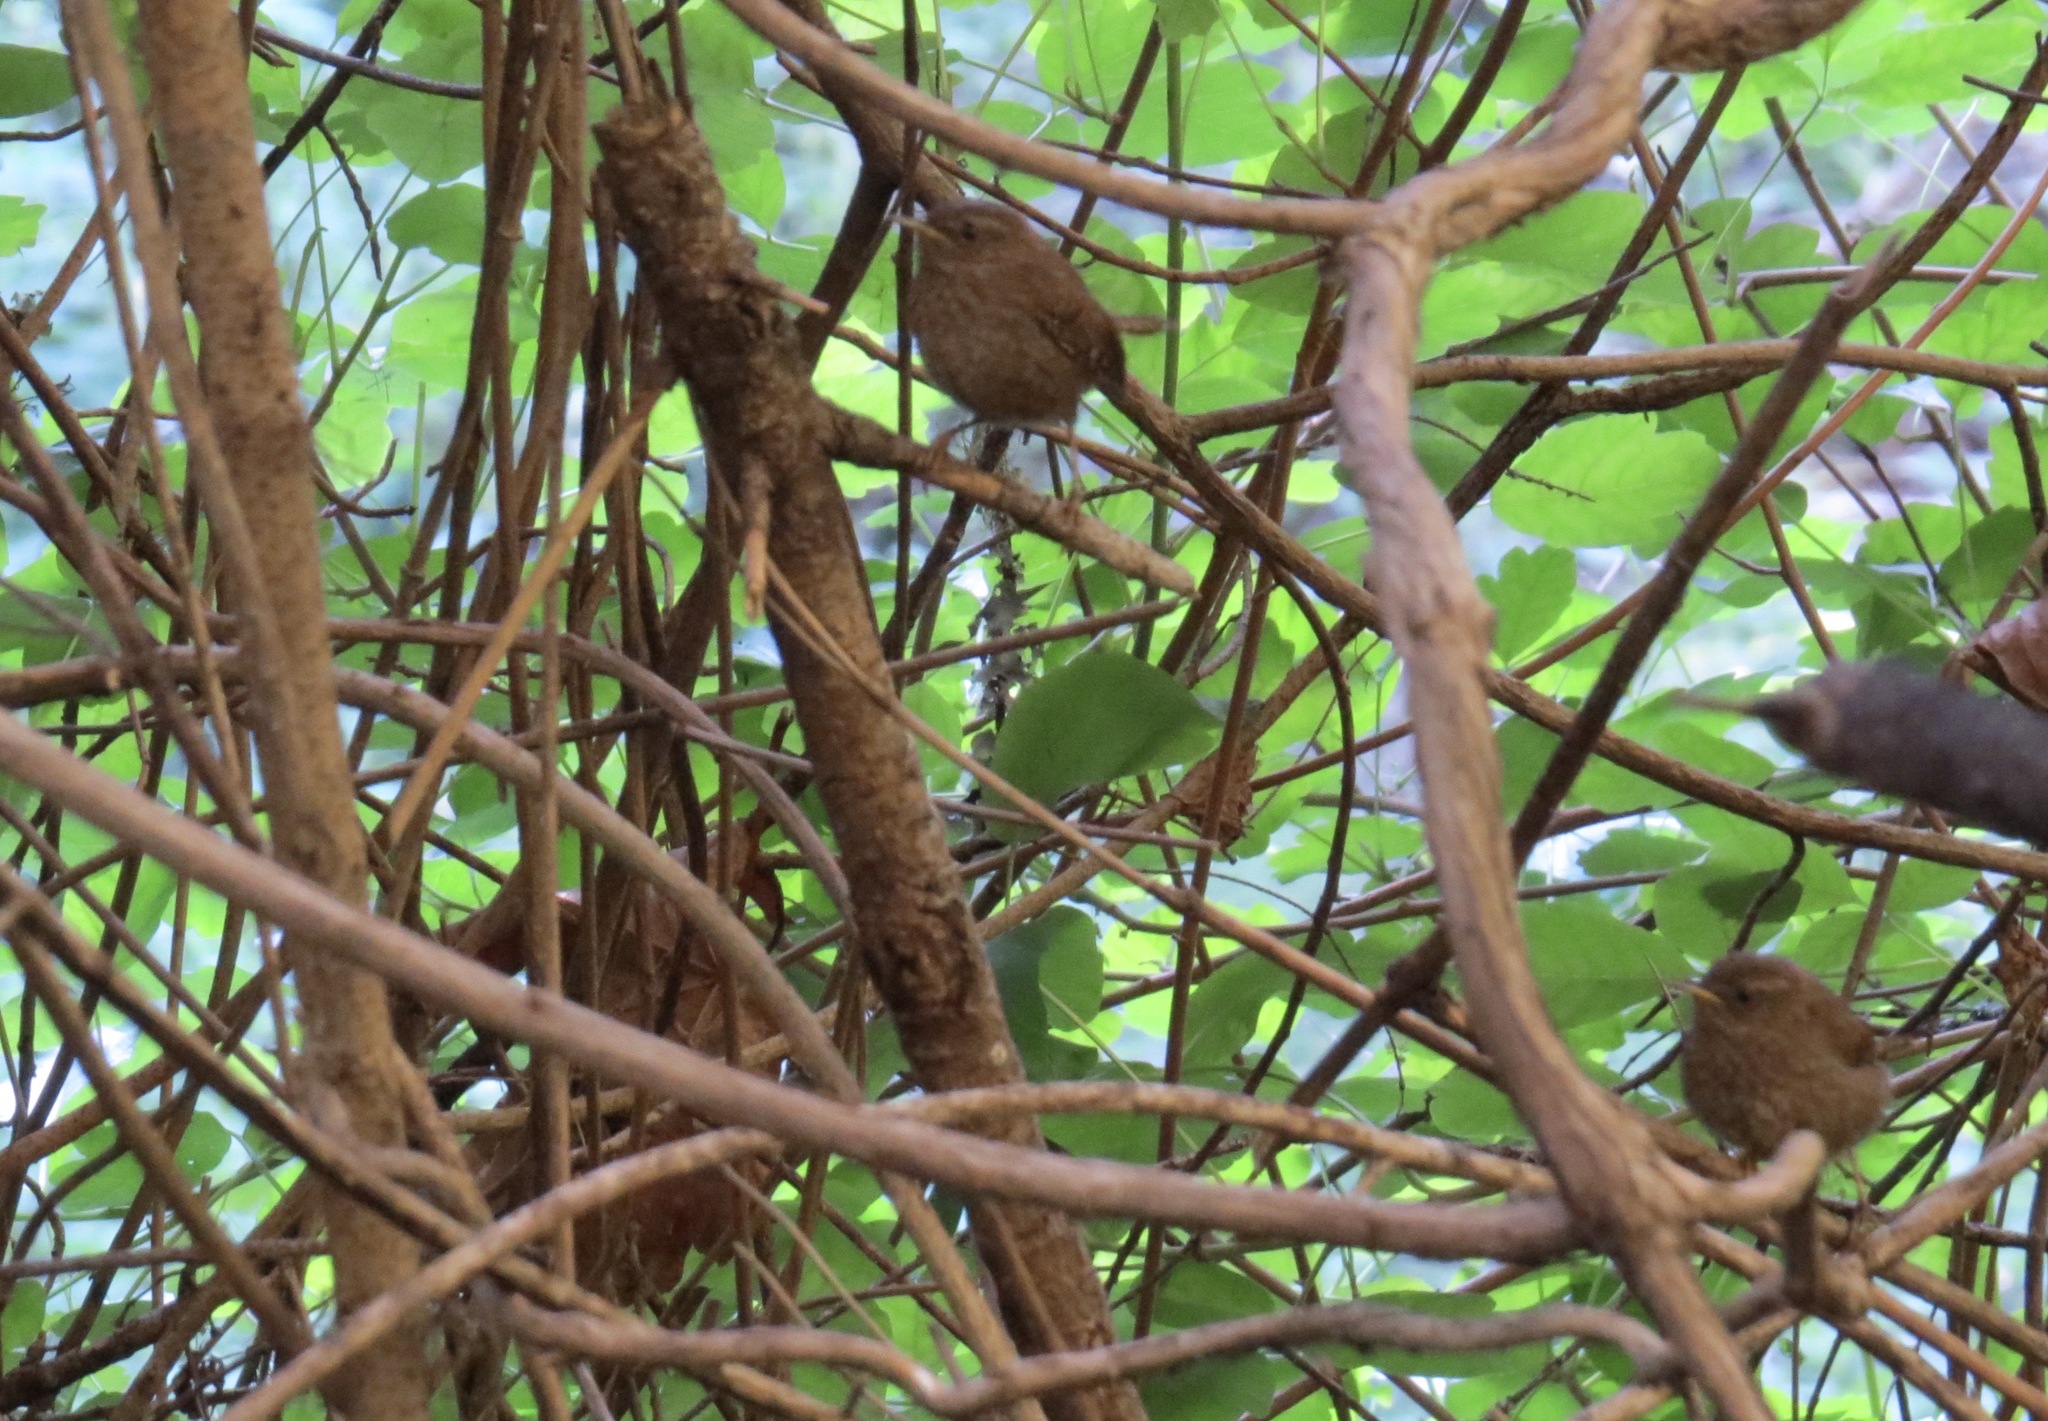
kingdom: Animalia
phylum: Chordata
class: Aves
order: Passeriformes
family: Troglodytidae
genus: Troglodytes
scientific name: Troglodytes pacificus
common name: Pacific wren
